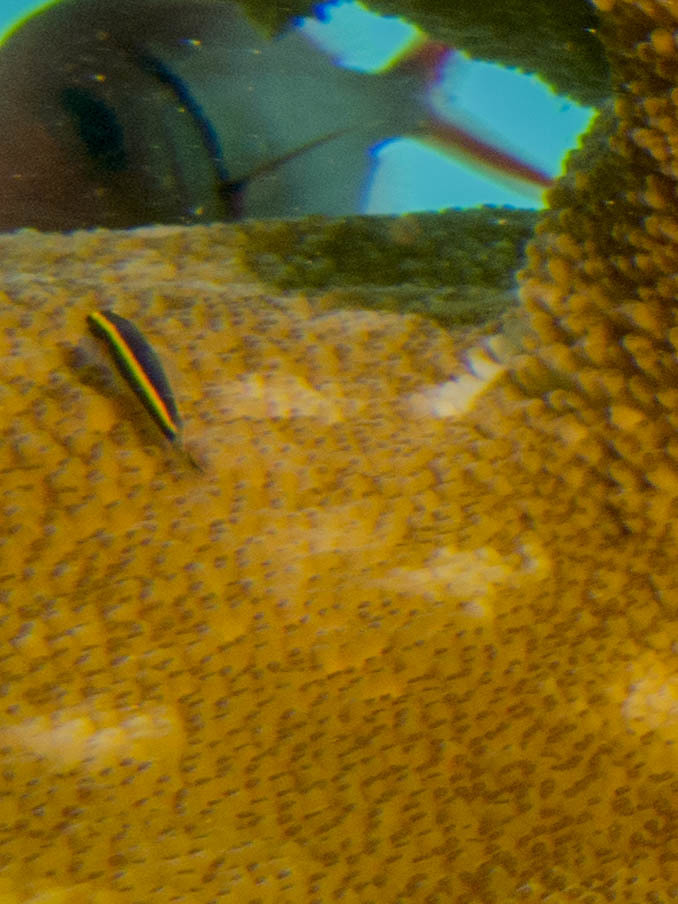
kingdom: Animalia
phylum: Chordata
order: Perciformes
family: Gobiidae
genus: Elacatinus
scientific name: Elacatinus randalli
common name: Yellownose goby
